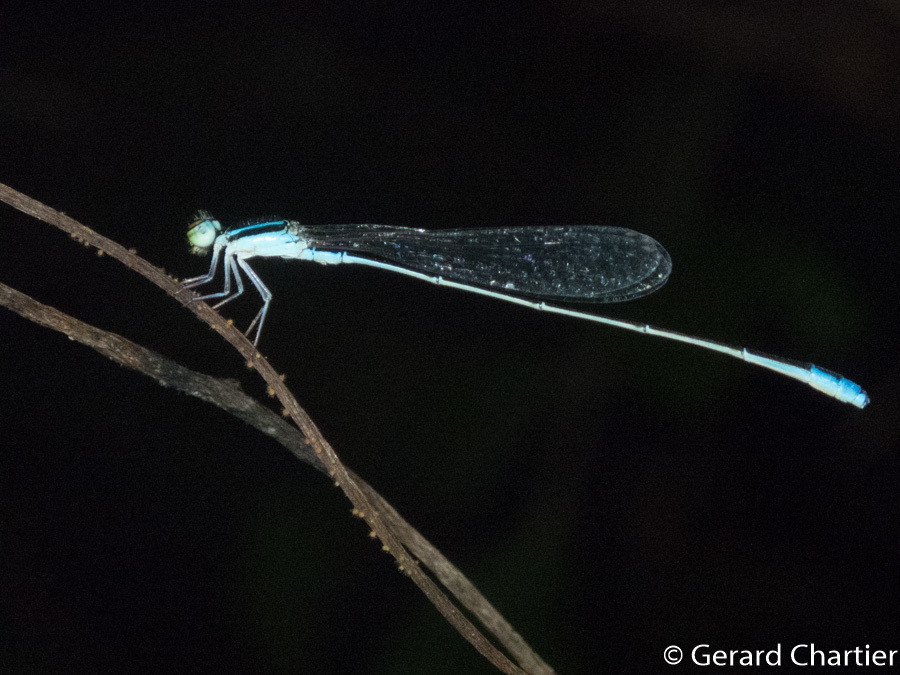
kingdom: Animalia
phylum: Arthropoda
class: Insecta
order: Odonata
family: Coenagrionidae
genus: Aciagrion
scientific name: Aciagrion borneense
